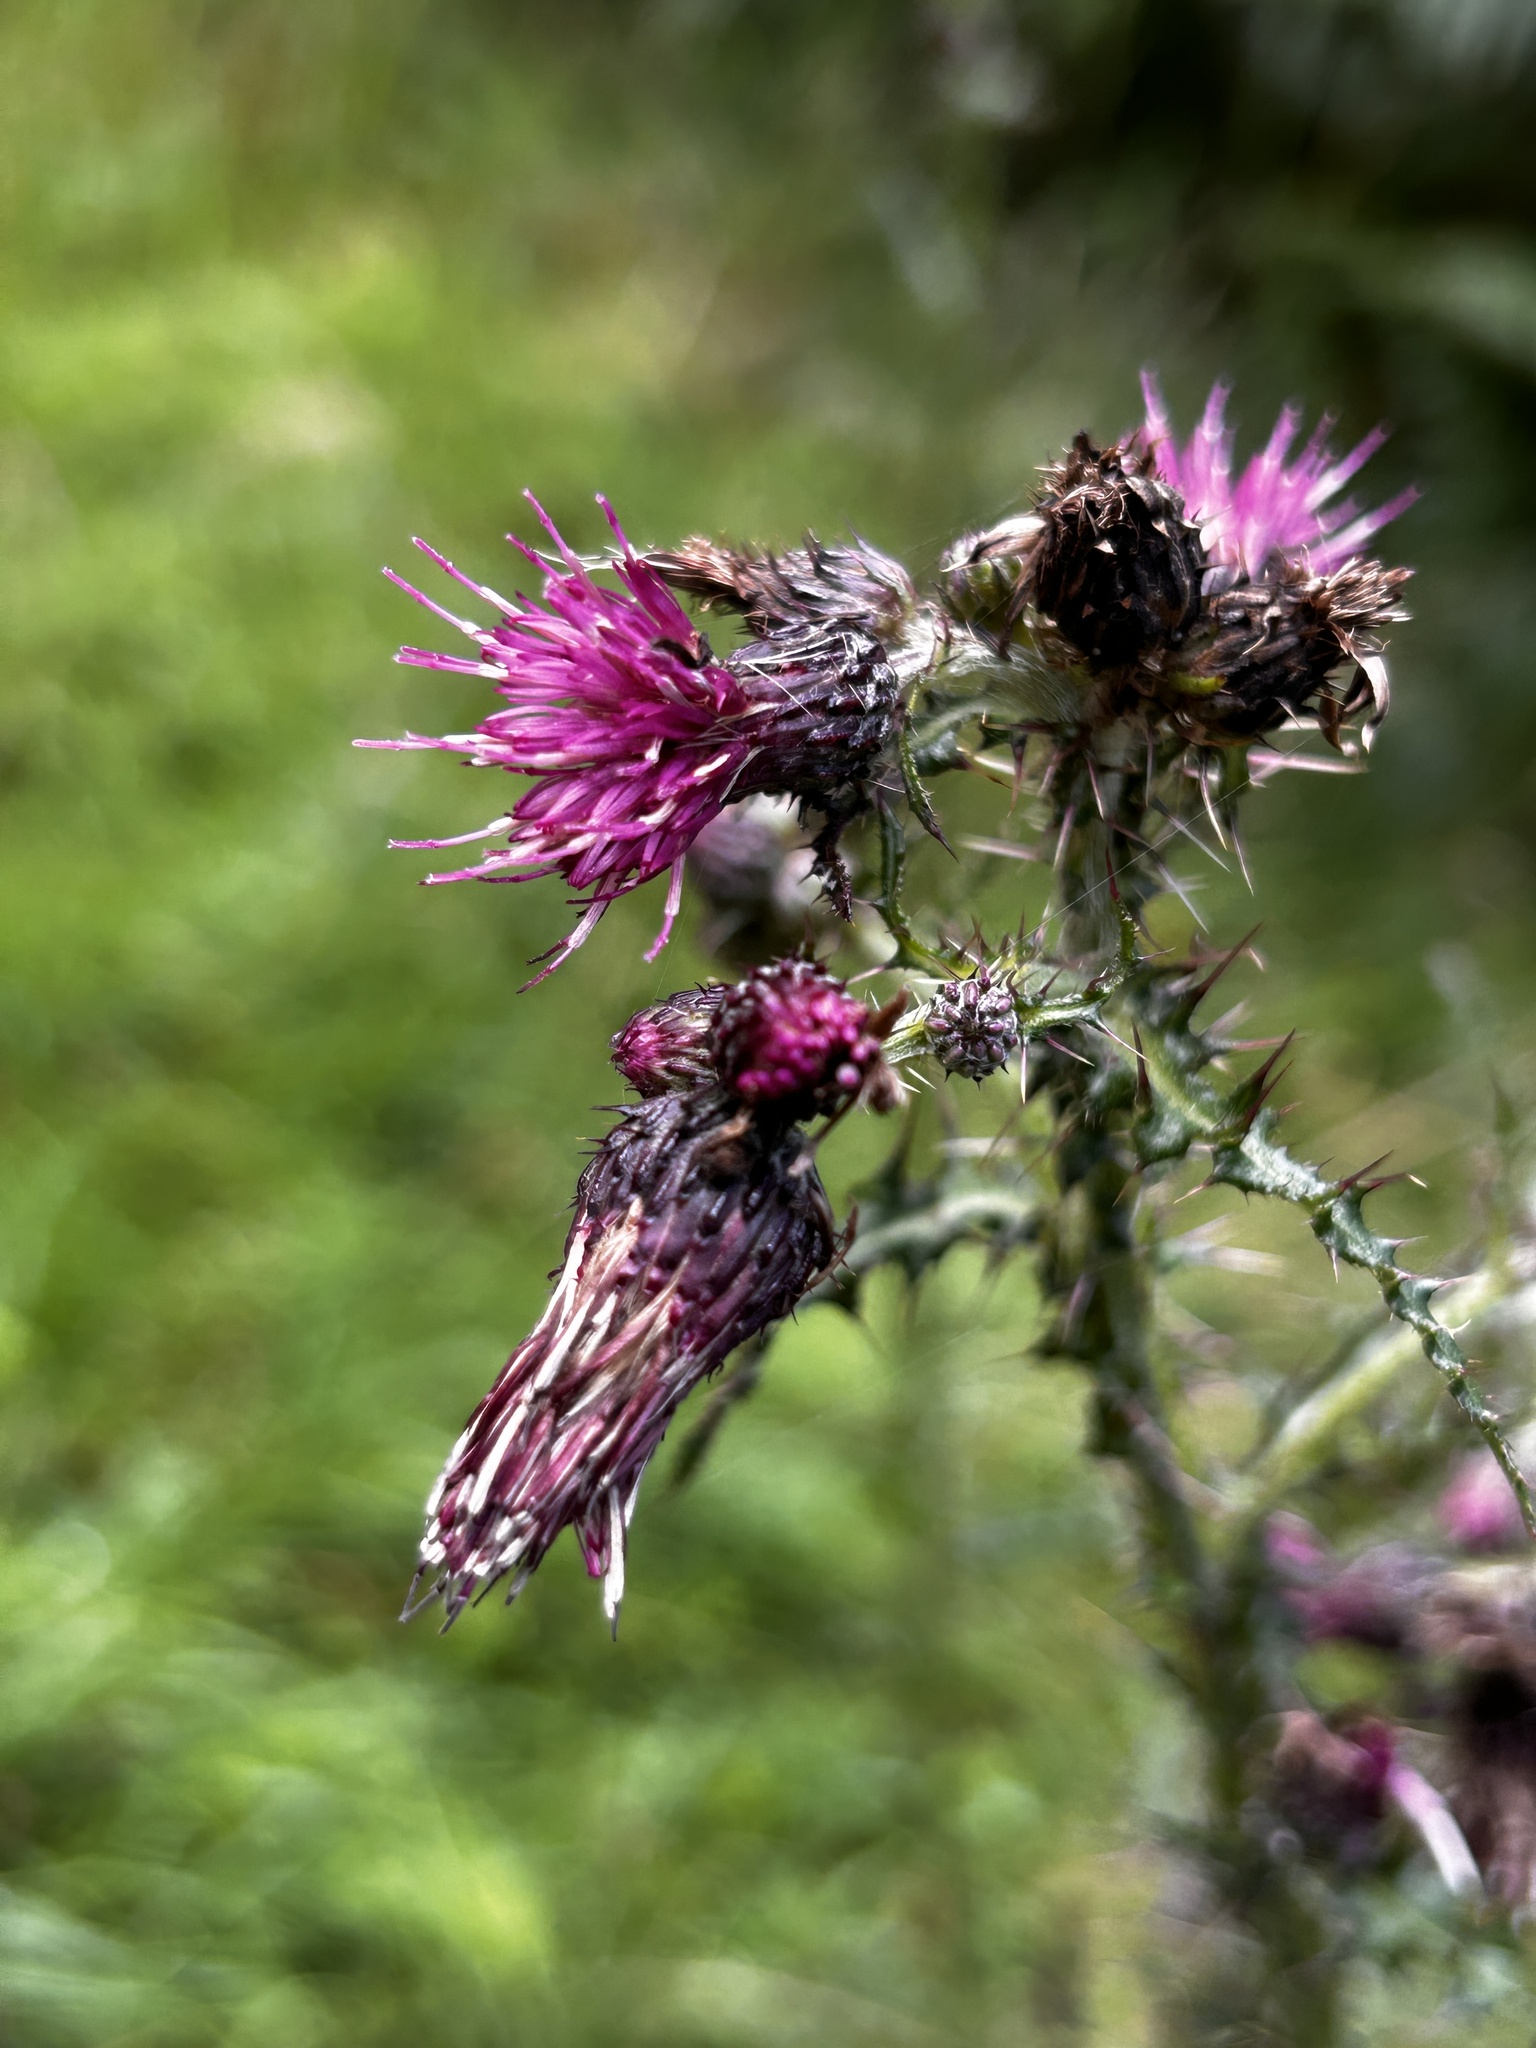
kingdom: Plantae
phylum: Tracheophyta
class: Magnoliopsida
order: Asterales
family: Asteraceae
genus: Cirsium
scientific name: Cirsium palustre
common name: Marsh thistle
